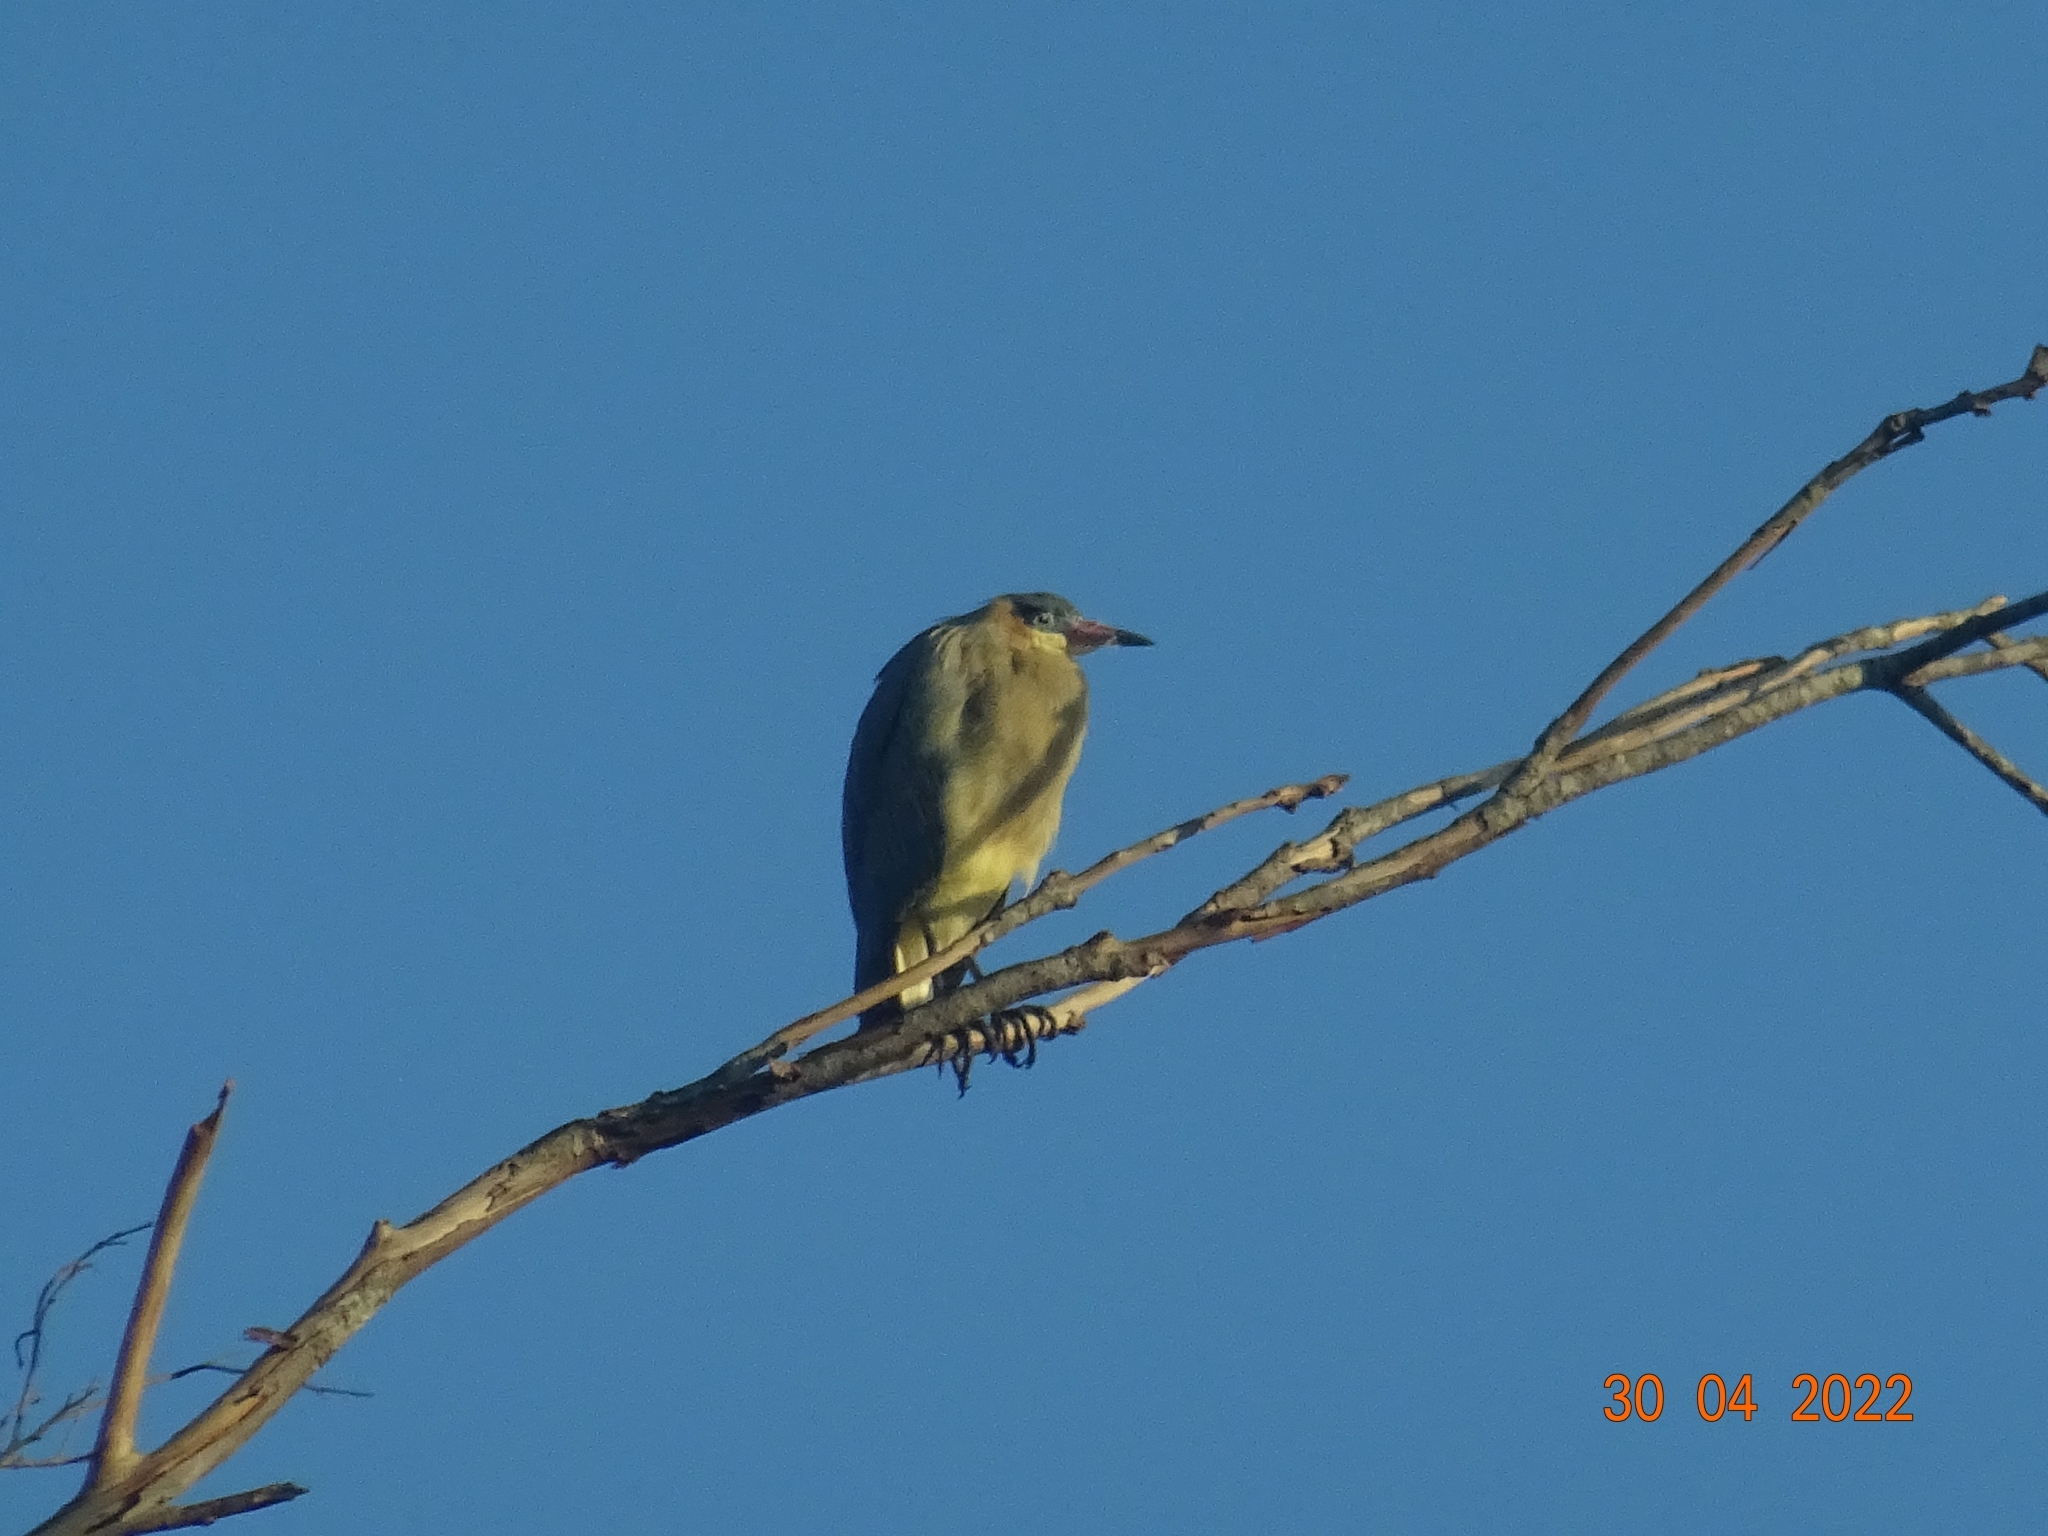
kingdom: Animalia
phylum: Chordata
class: Aves
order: Pelecaniformes
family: Ardeidae
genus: Syrigma
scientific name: Syrigma sibilatrix
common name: Whistling heron
